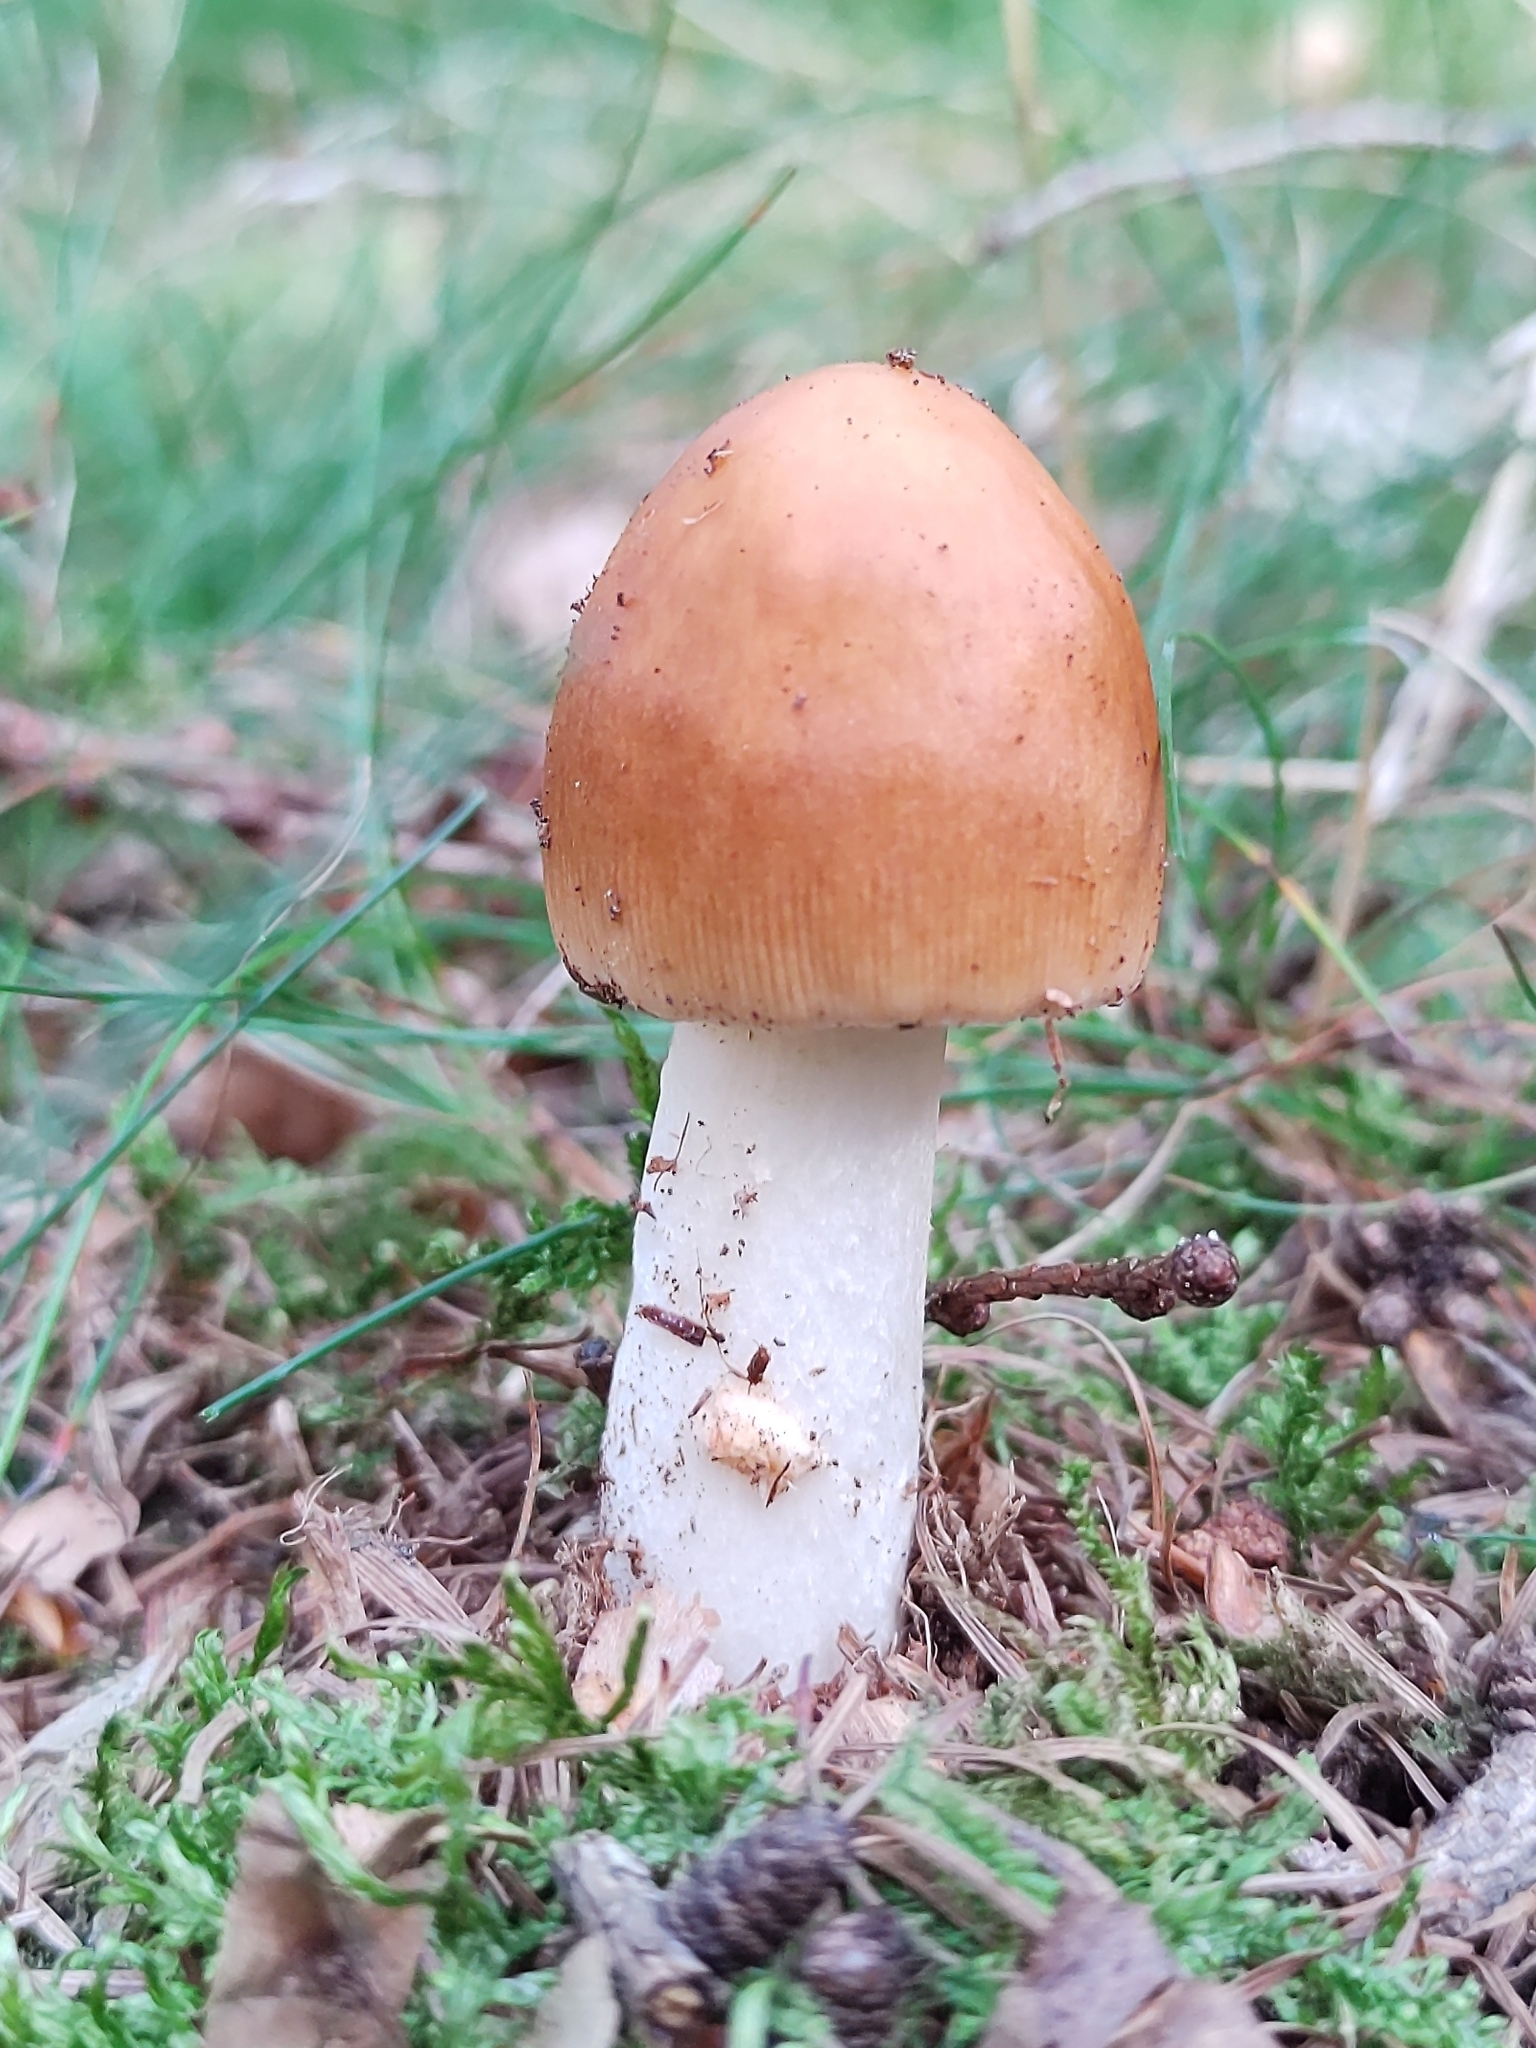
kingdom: Fungi
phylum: Basidiomycota
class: Agaricomycetes
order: Agaricales
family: Amanitaceae
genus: Amanita
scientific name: Amanita fulva
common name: Tawny grisette
